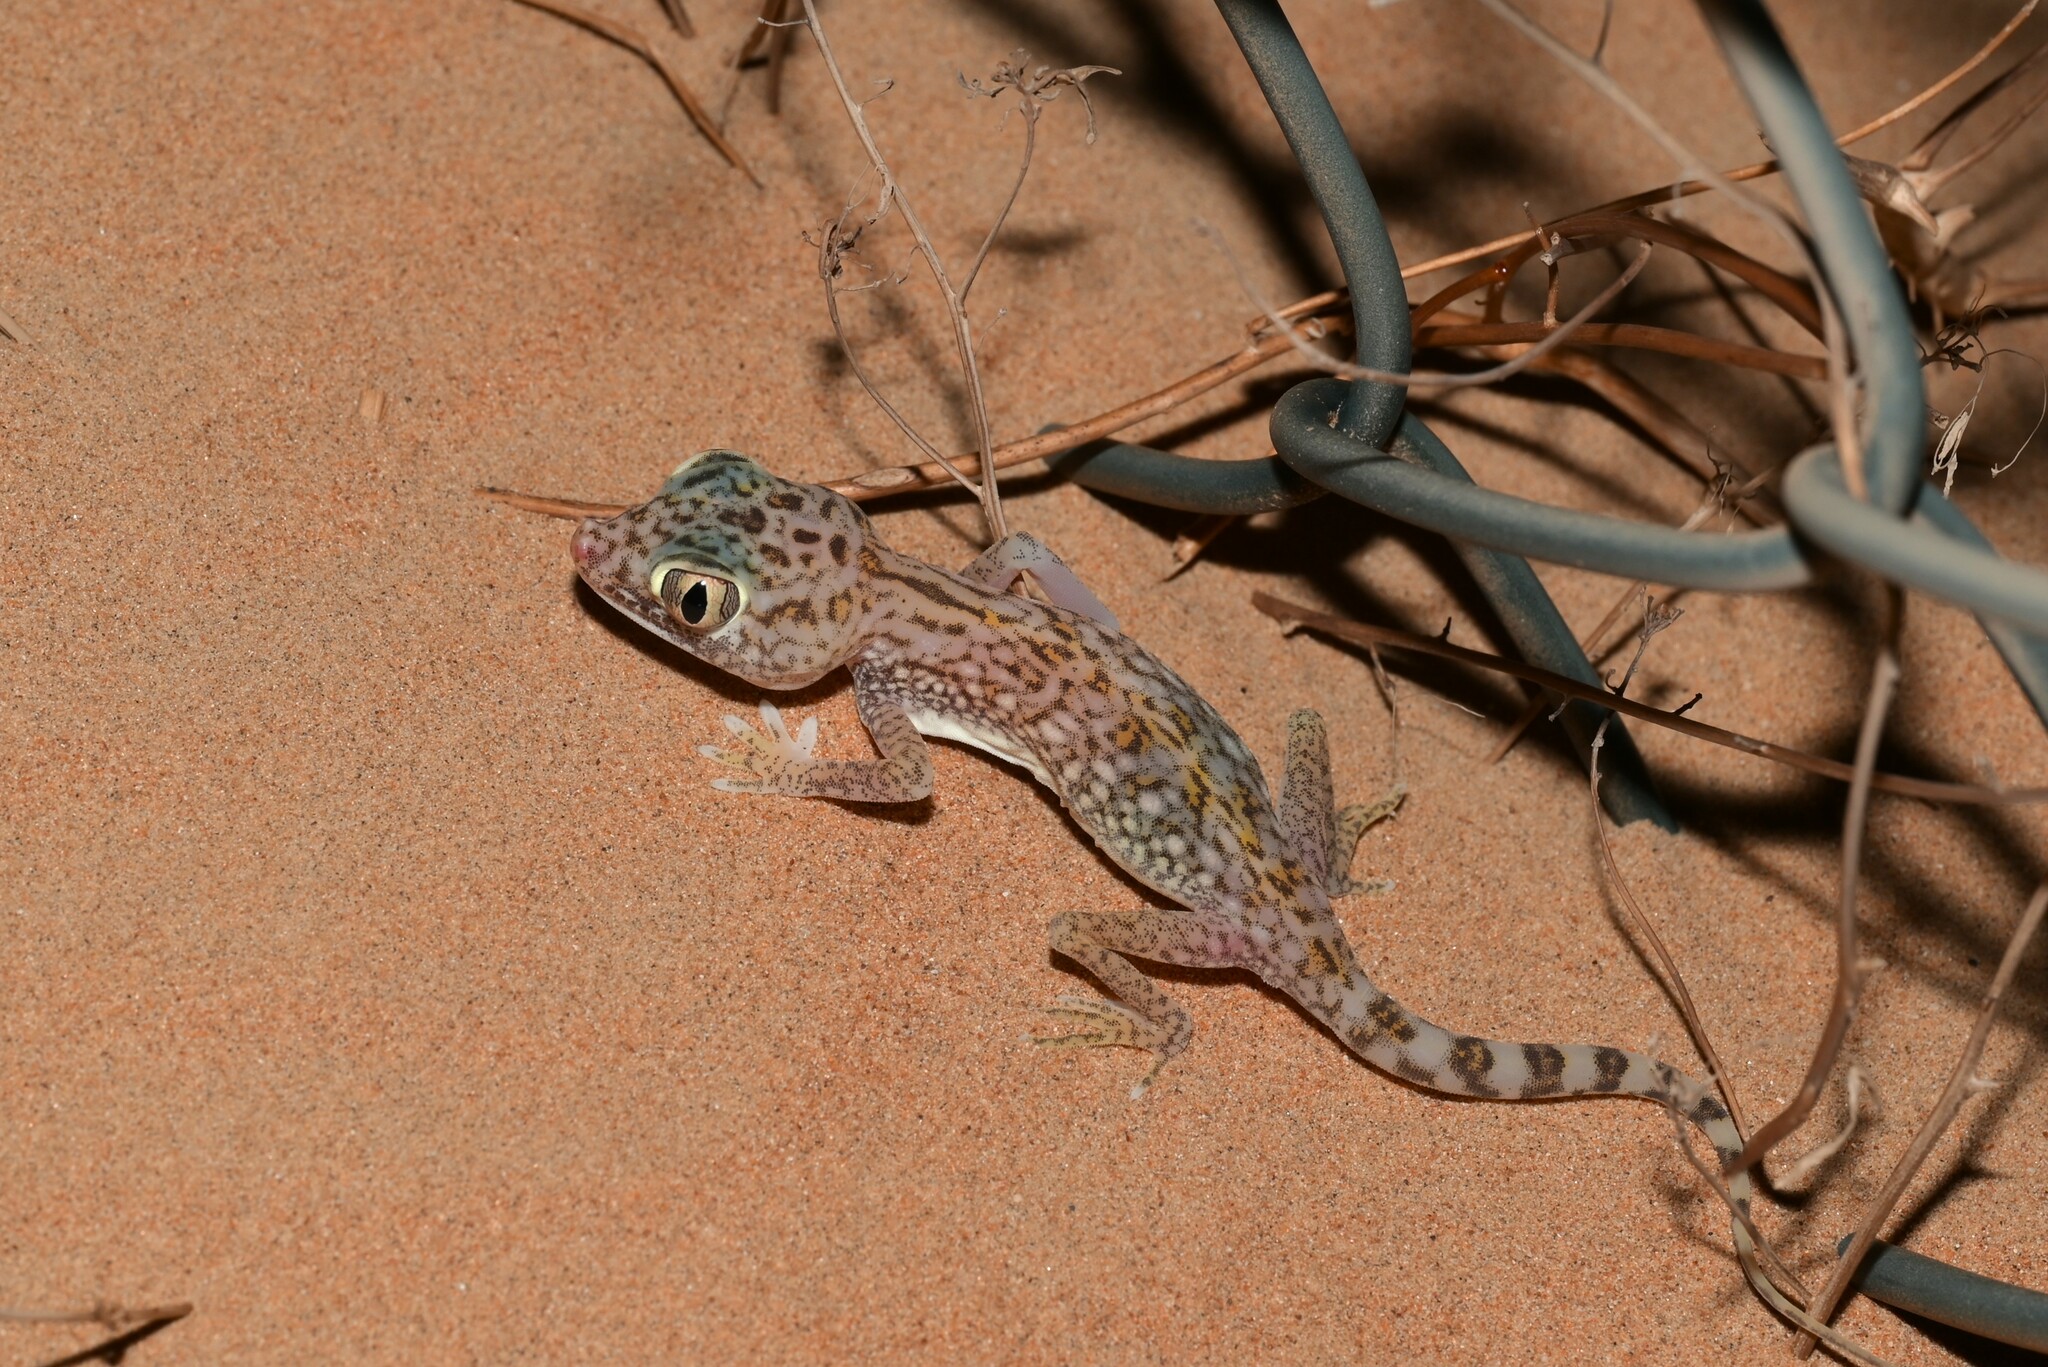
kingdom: Animalia
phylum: Chordata
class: Squamata
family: Gekkonidae
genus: Stenodactylus
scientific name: Stenodactylus doriae
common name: Dune sand gecko
